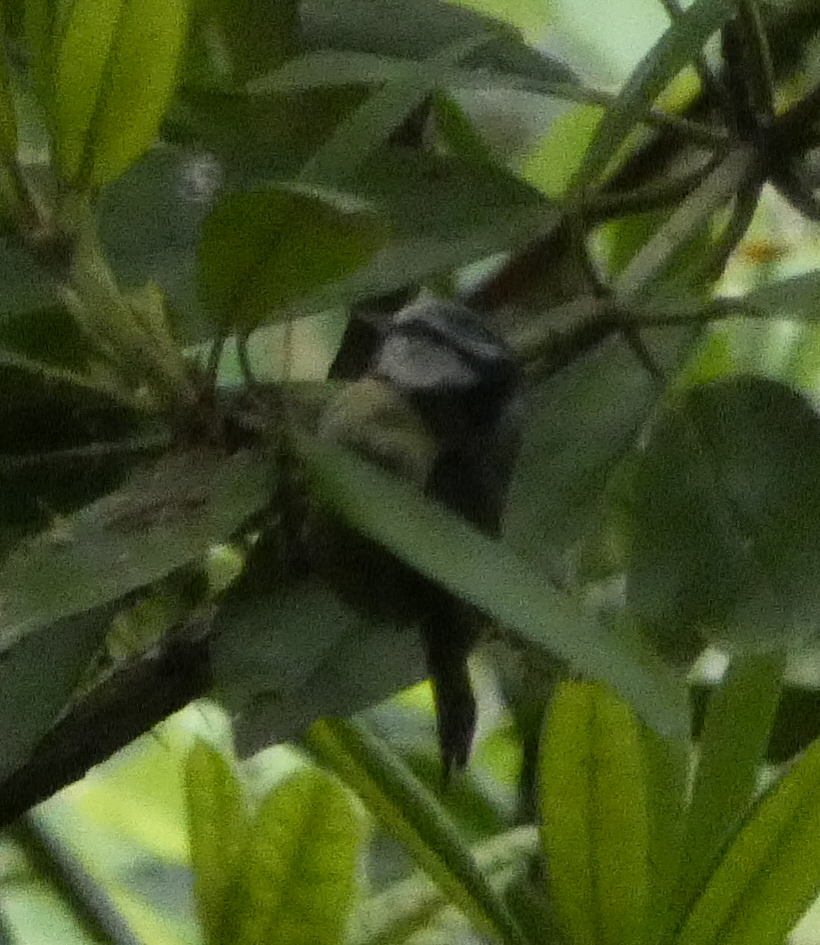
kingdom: Animalia
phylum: Chordata
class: Aves
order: Passeriformes
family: Paridae
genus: Cyanistes
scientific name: Cyanistes caeruleus
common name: Eurasian blue tit
